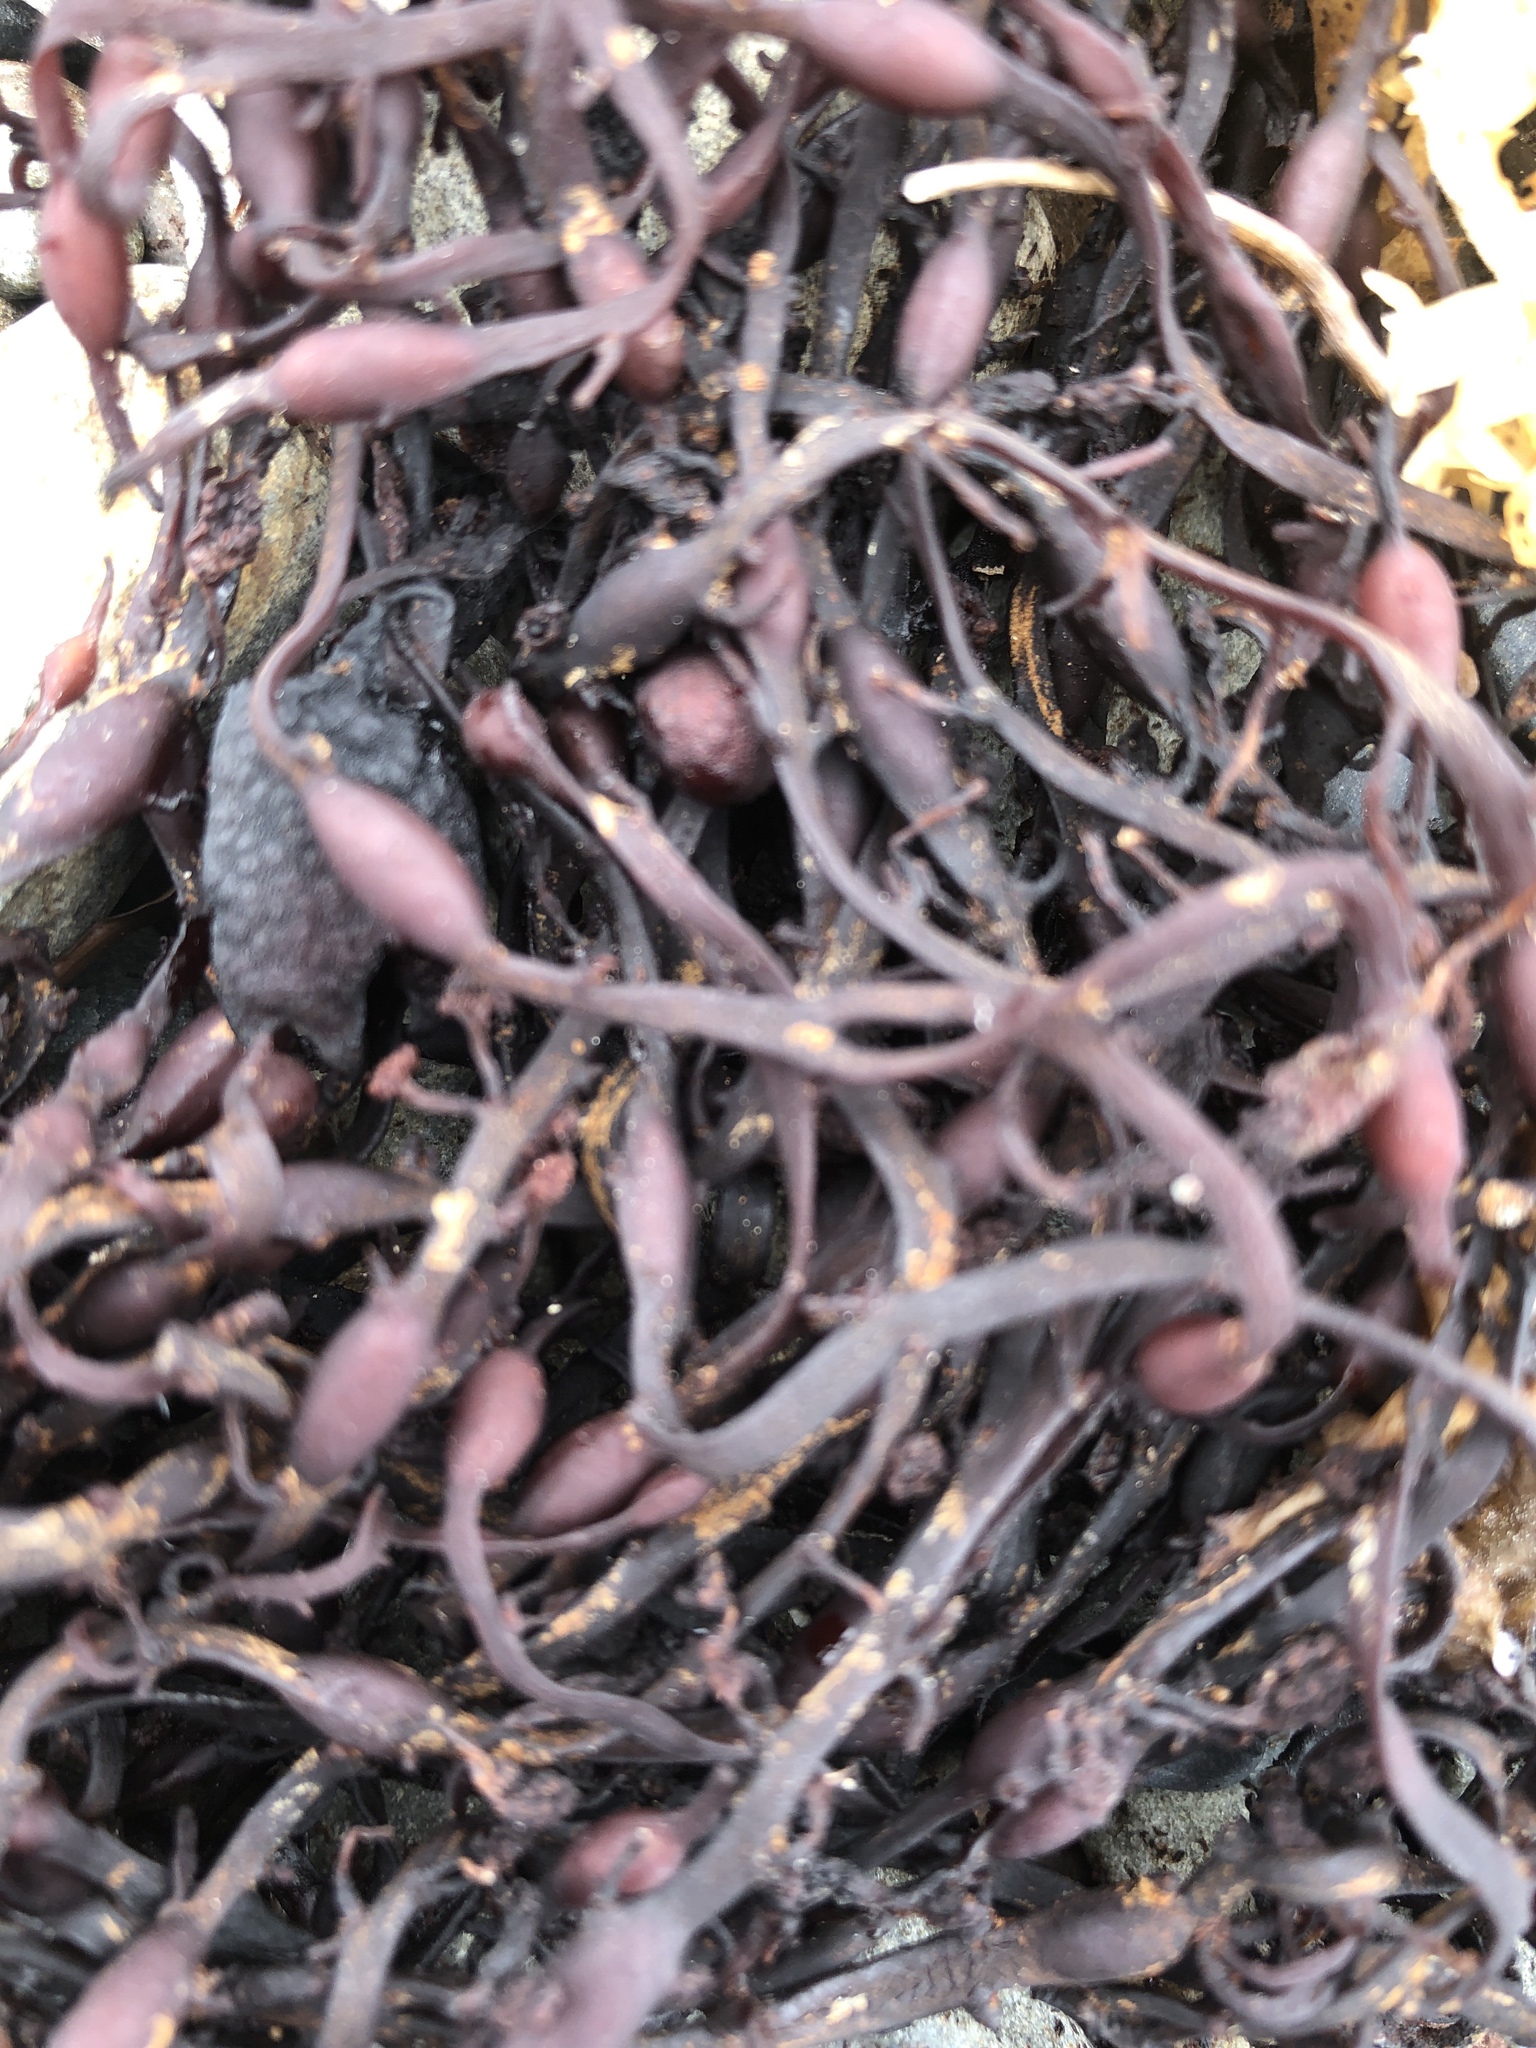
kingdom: Chromista
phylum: Ochrophyta
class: Phaeophyceae
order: Fucales
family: Fucaceae
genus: Ascophyllum
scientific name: Ascophyllum nodosum
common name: Knotted wrack
